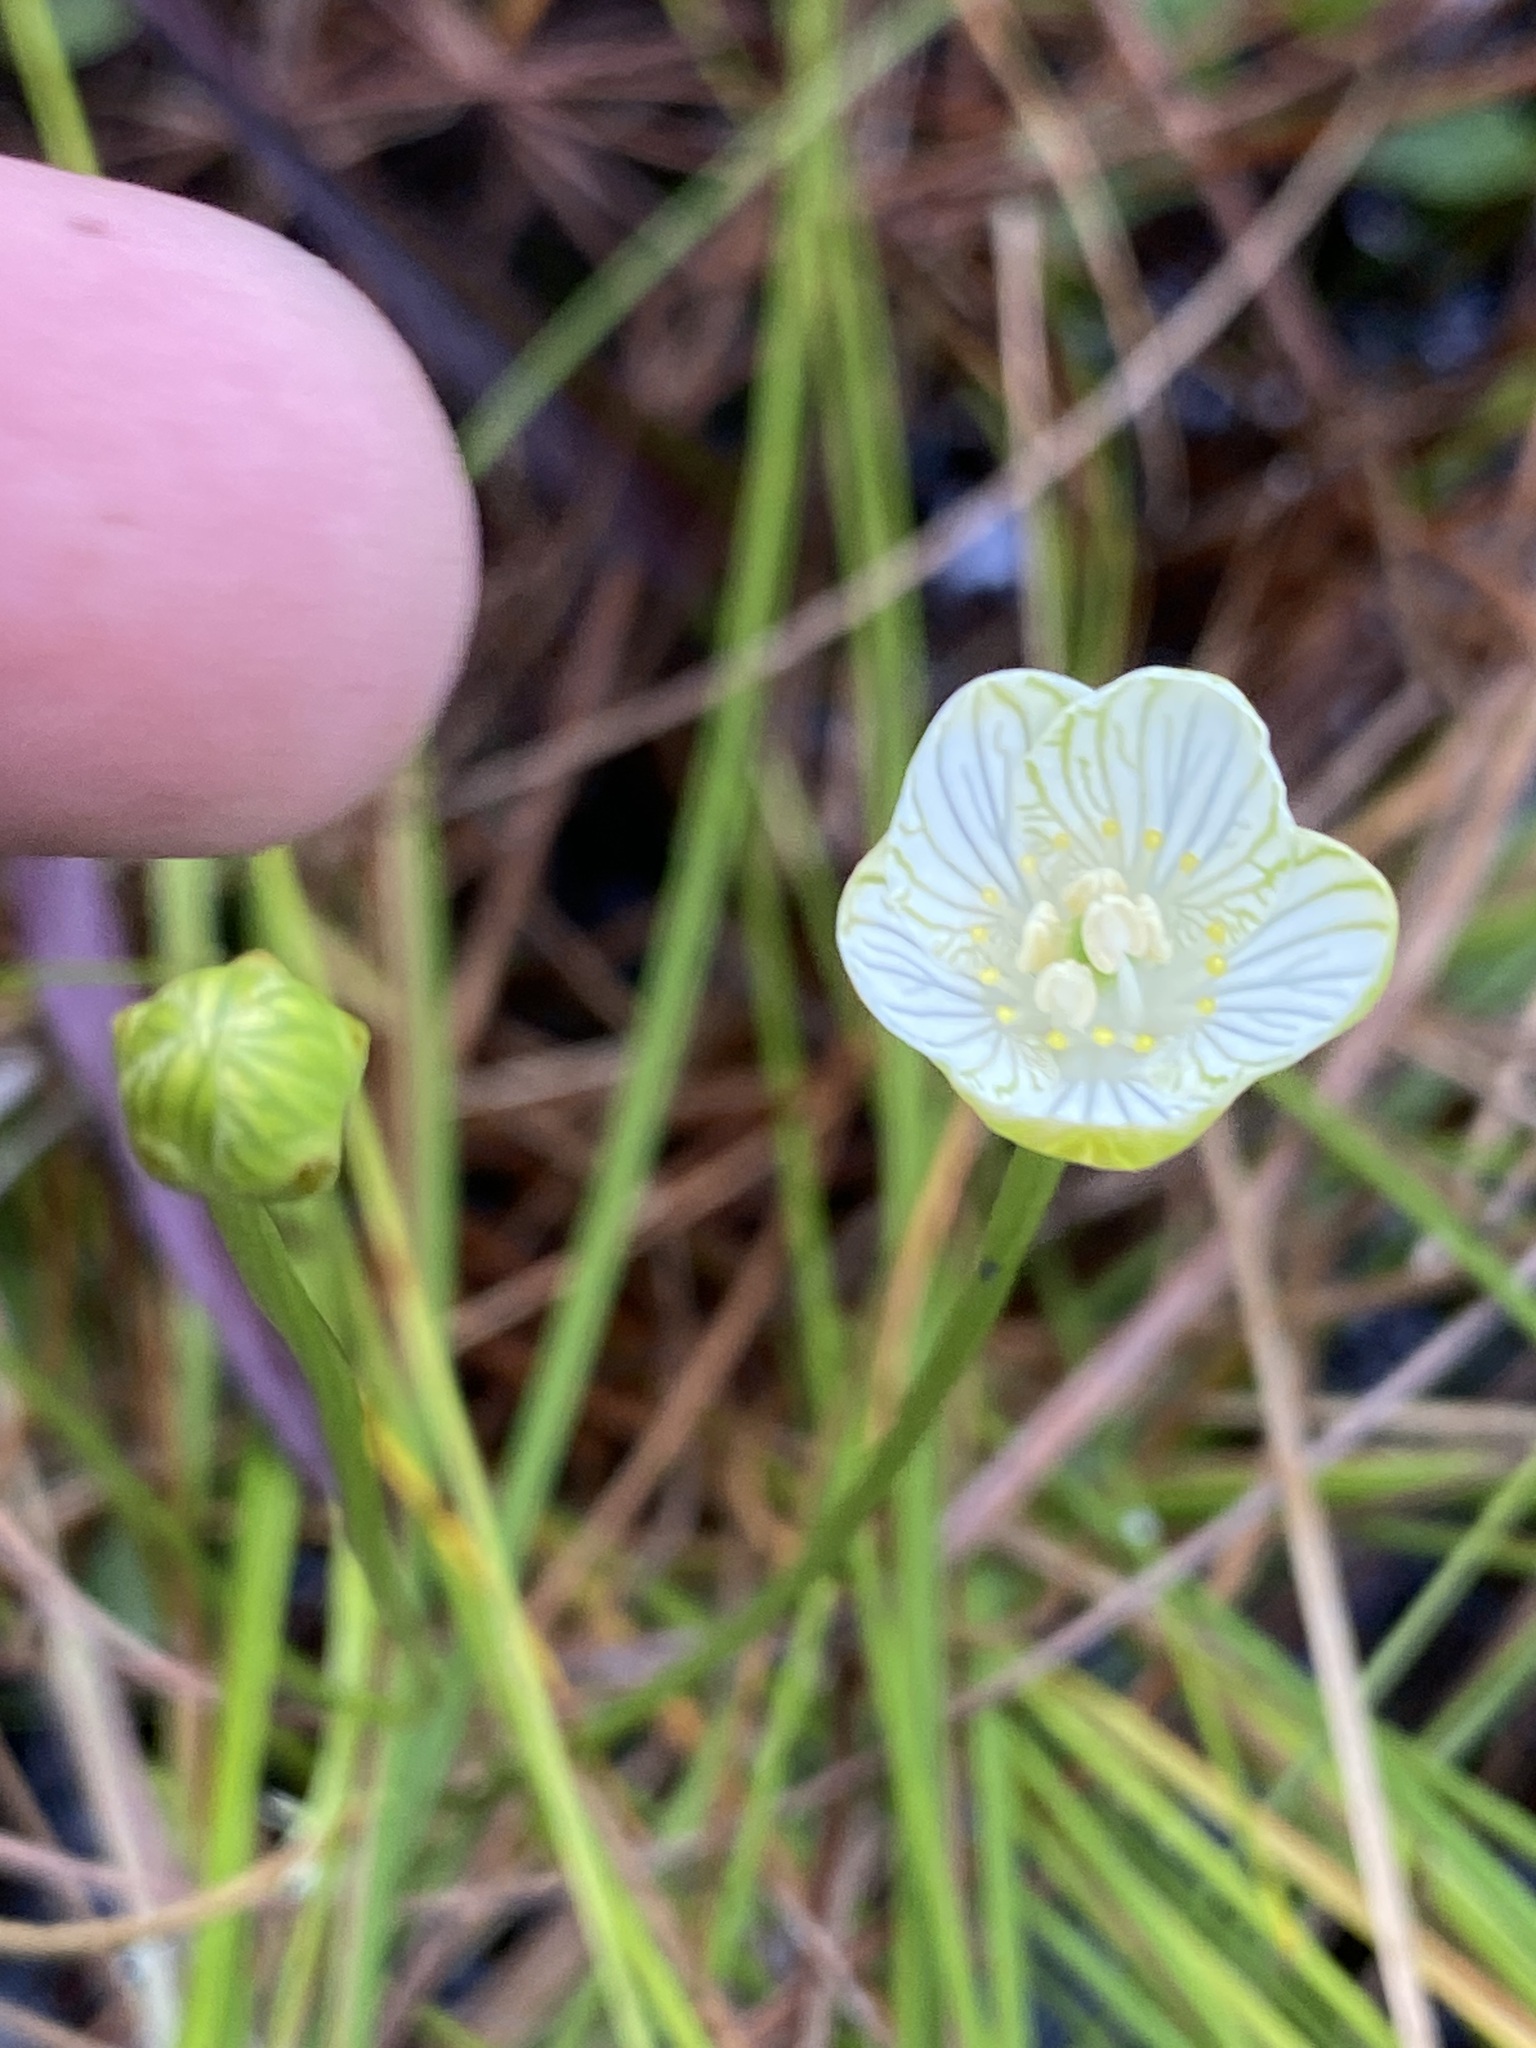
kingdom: Plantae
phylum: Tracheophyta
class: Magnoliopsida
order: Celastrales
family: Parnassiaceae
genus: Parnassia
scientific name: Parnassia glauca
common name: American grass-of-parnassus
